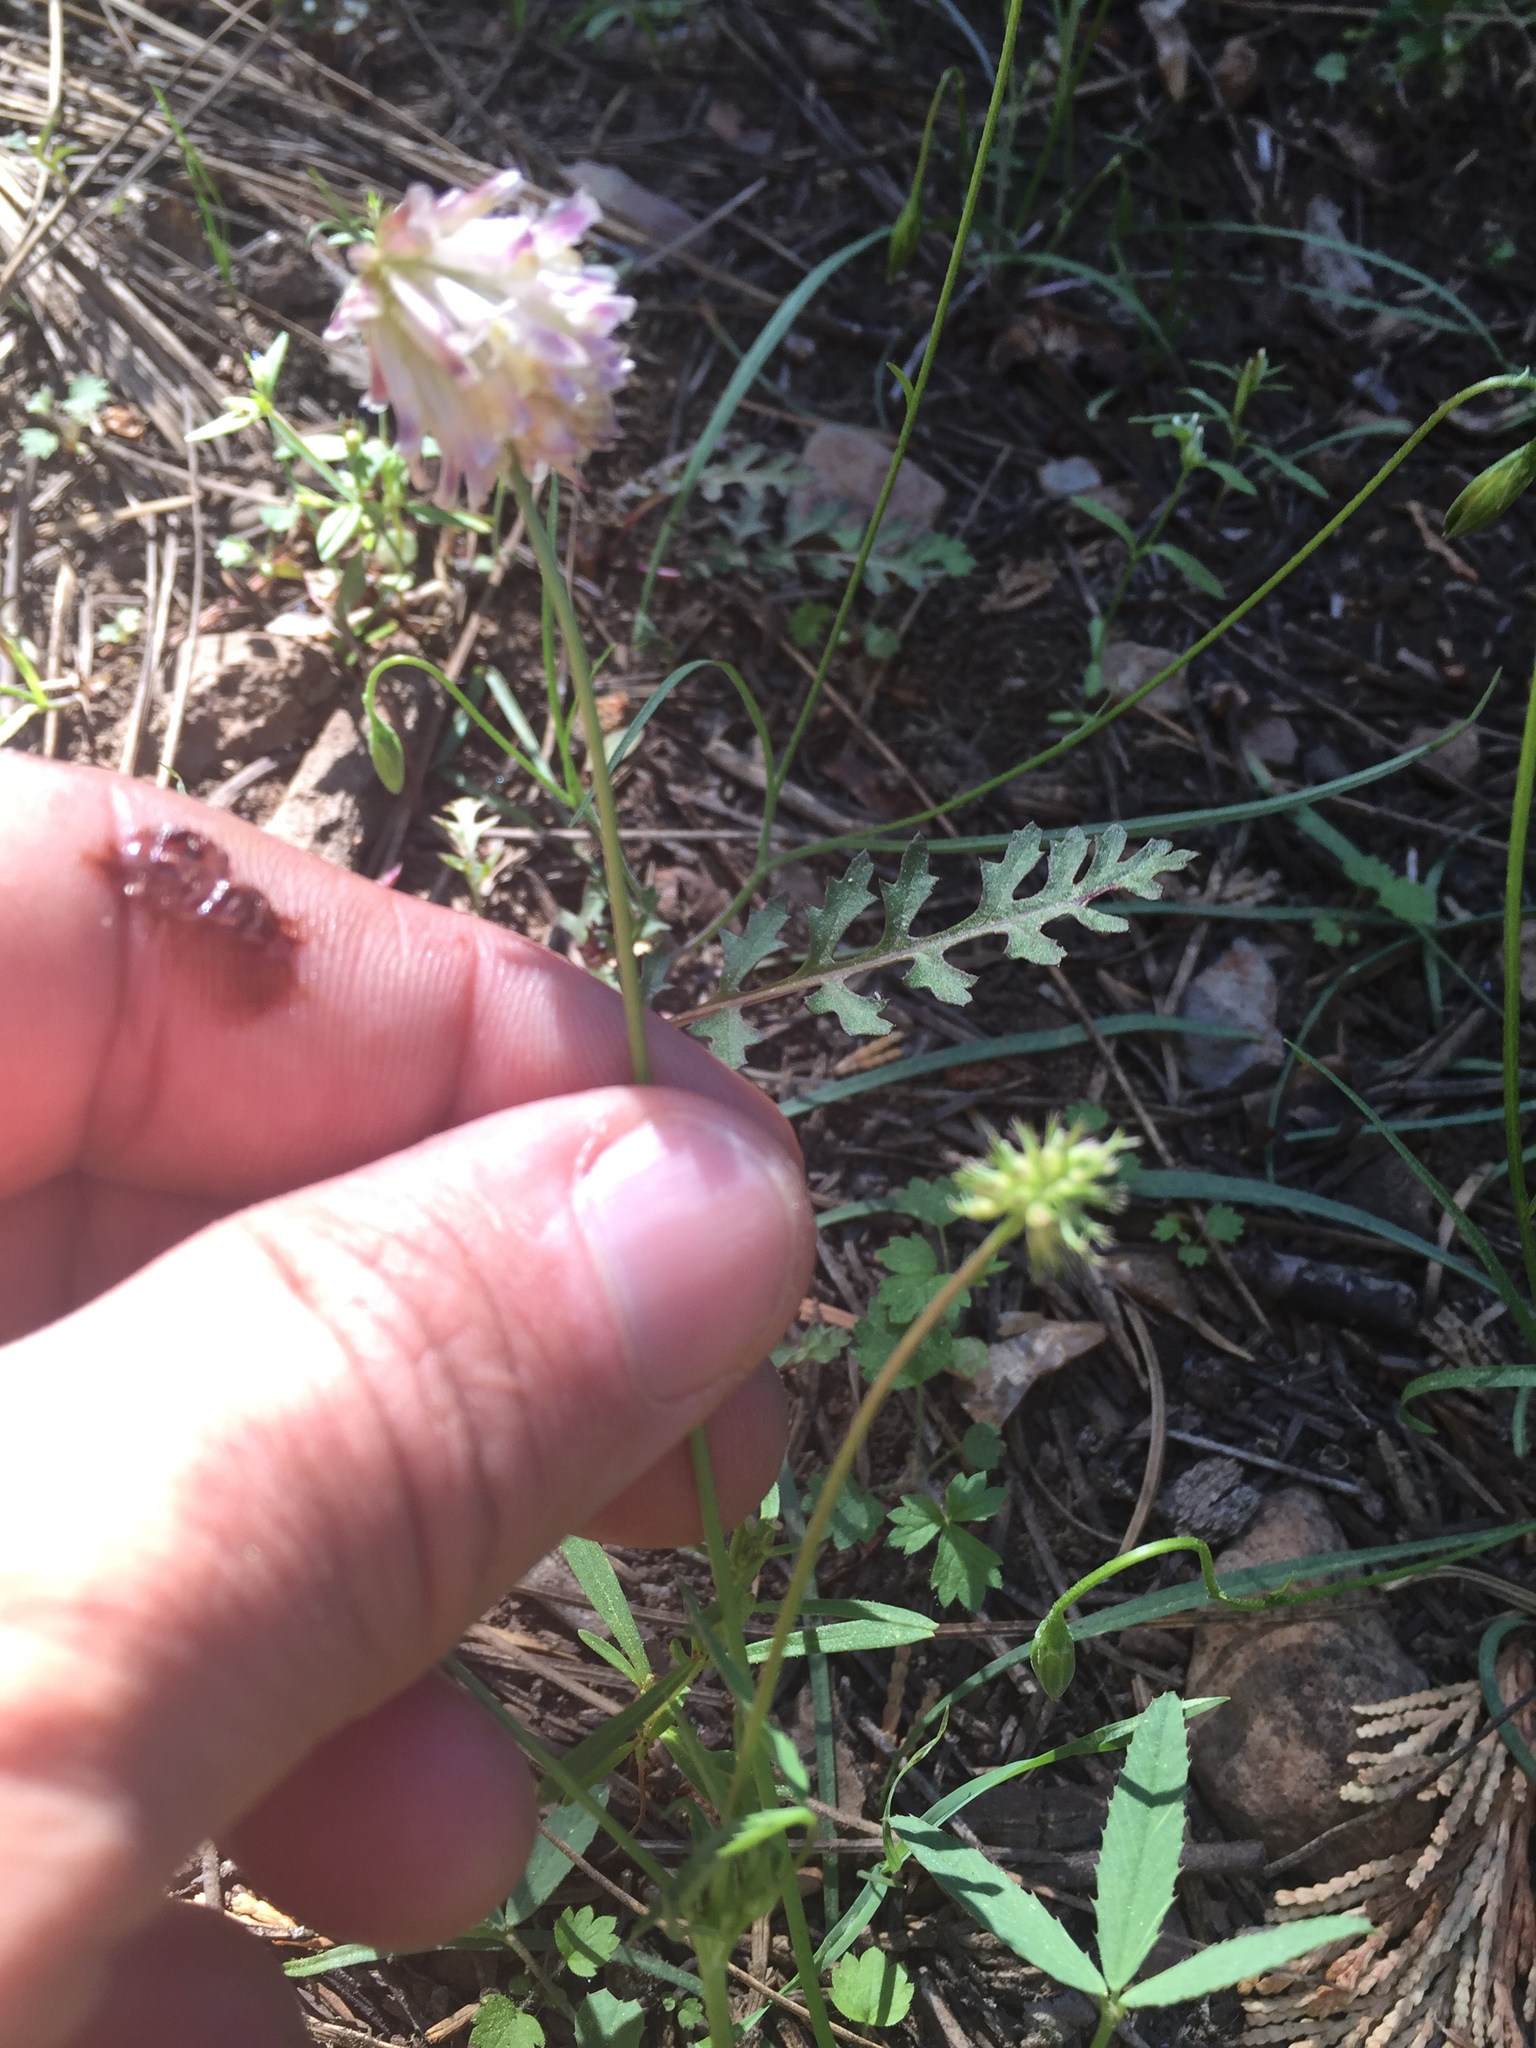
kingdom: Plantae
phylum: Tracheophyta
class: Magnoliopsida
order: Fabales
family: Fabaceae
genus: Trifolium
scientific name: Trifolium productum
